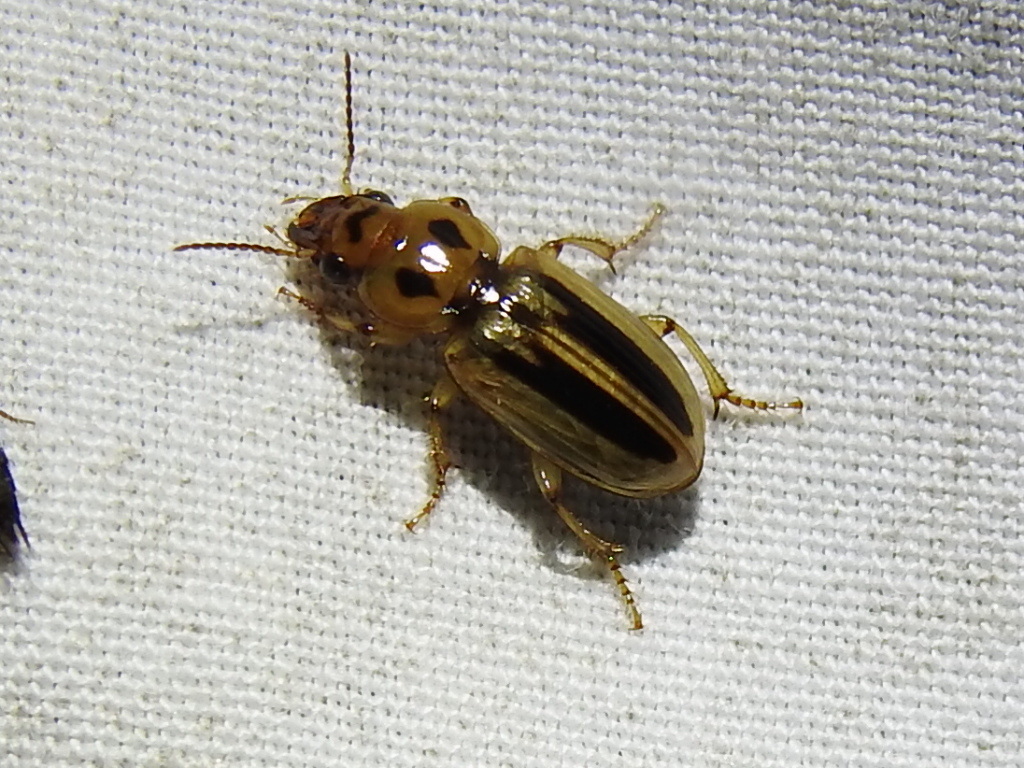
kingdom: Animalia
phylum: Arthropoda
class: Insecta
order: Coleoptera
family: Carabidae
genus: Stenolophus
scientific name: Stenolophus lineola
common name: Lined stenolophus
